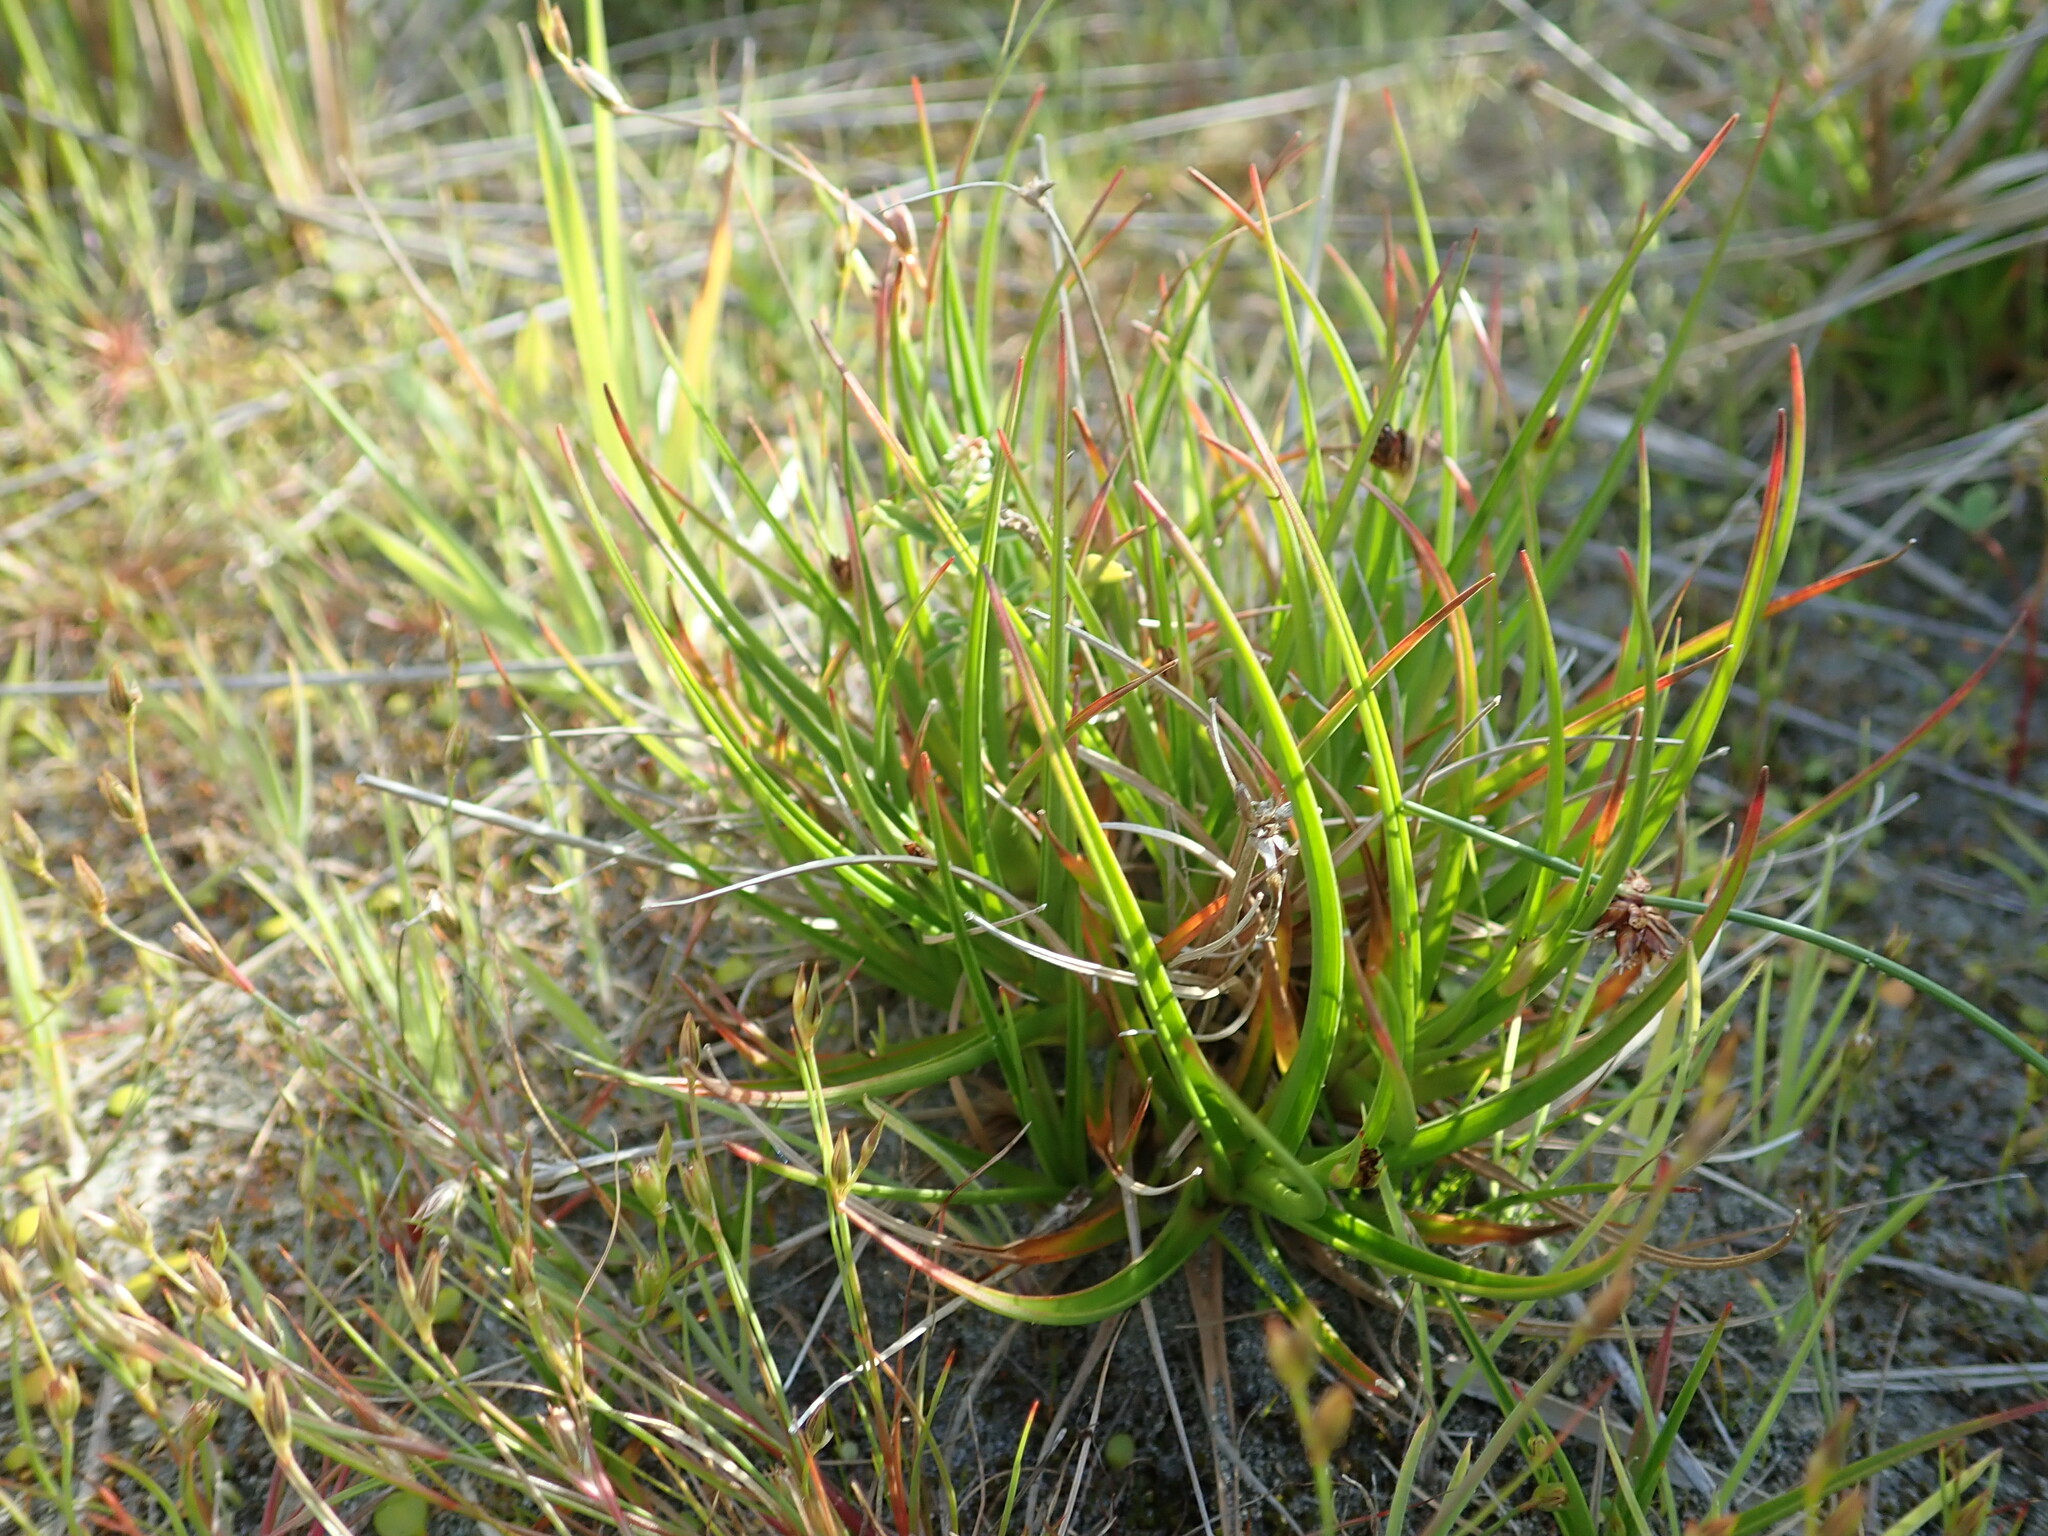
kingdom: Plantae
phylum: Tracheophyta
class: Liliopsida
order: Poales
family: Juncaceae
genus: Juncus
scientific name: Juncus caespiticius
